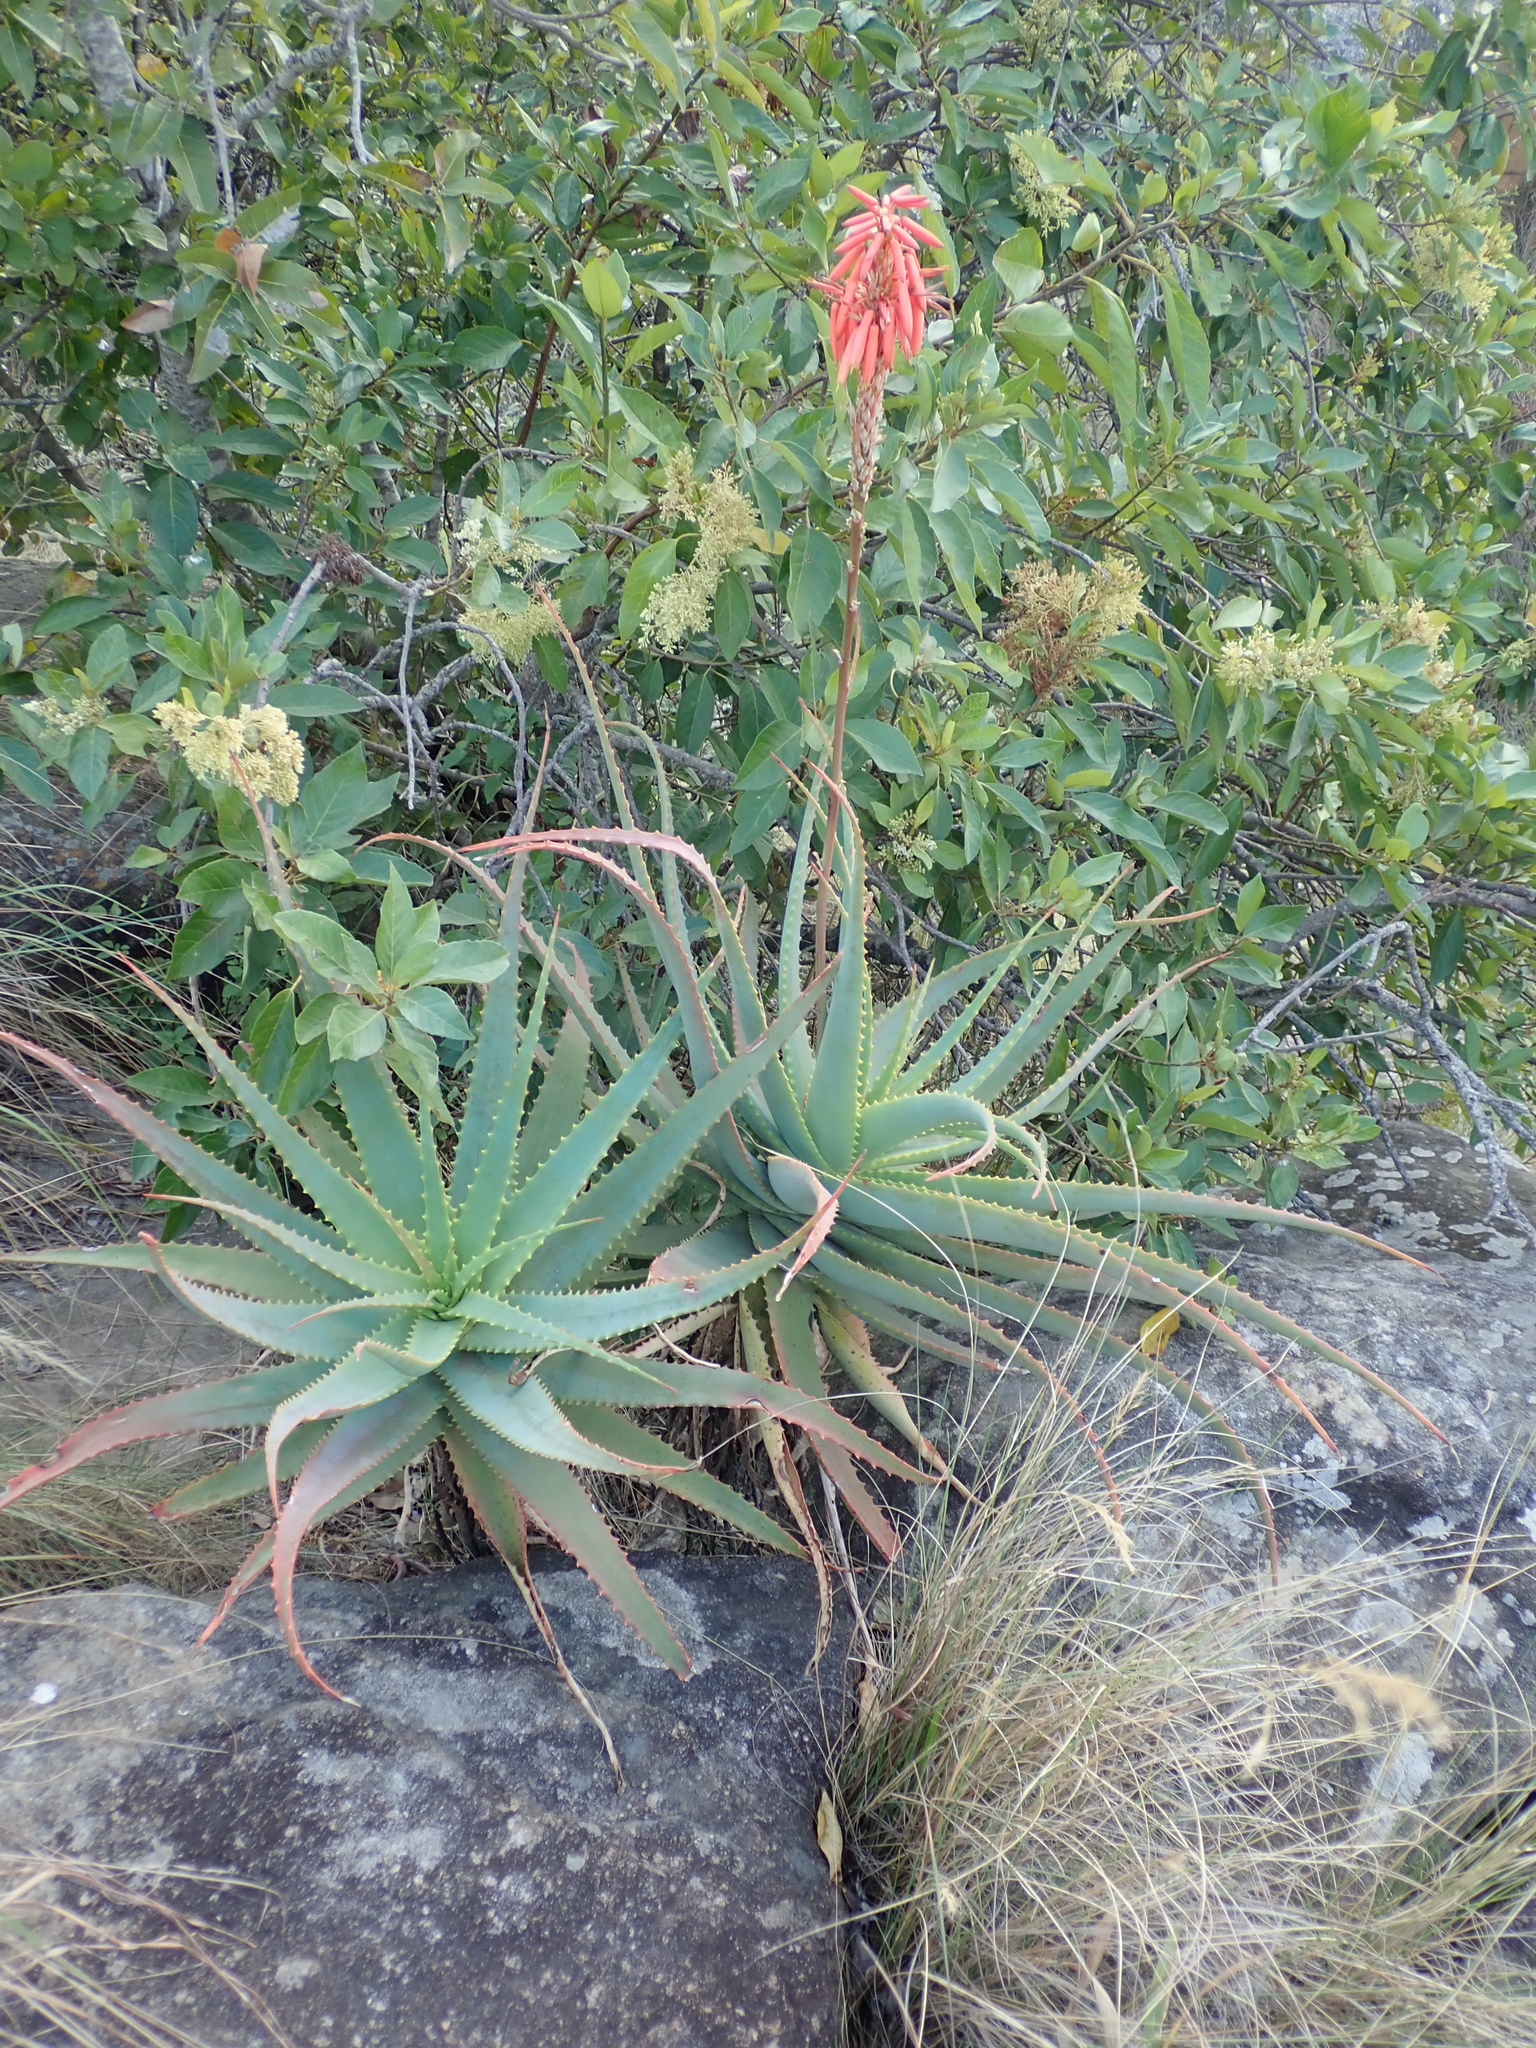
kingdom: Plantae
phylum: Tracheophyta
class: Liliopsida
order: Asparagales
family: Asphodelaceae
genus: Aloe
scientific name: Aloe arborescens
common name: Candelabra aloe
